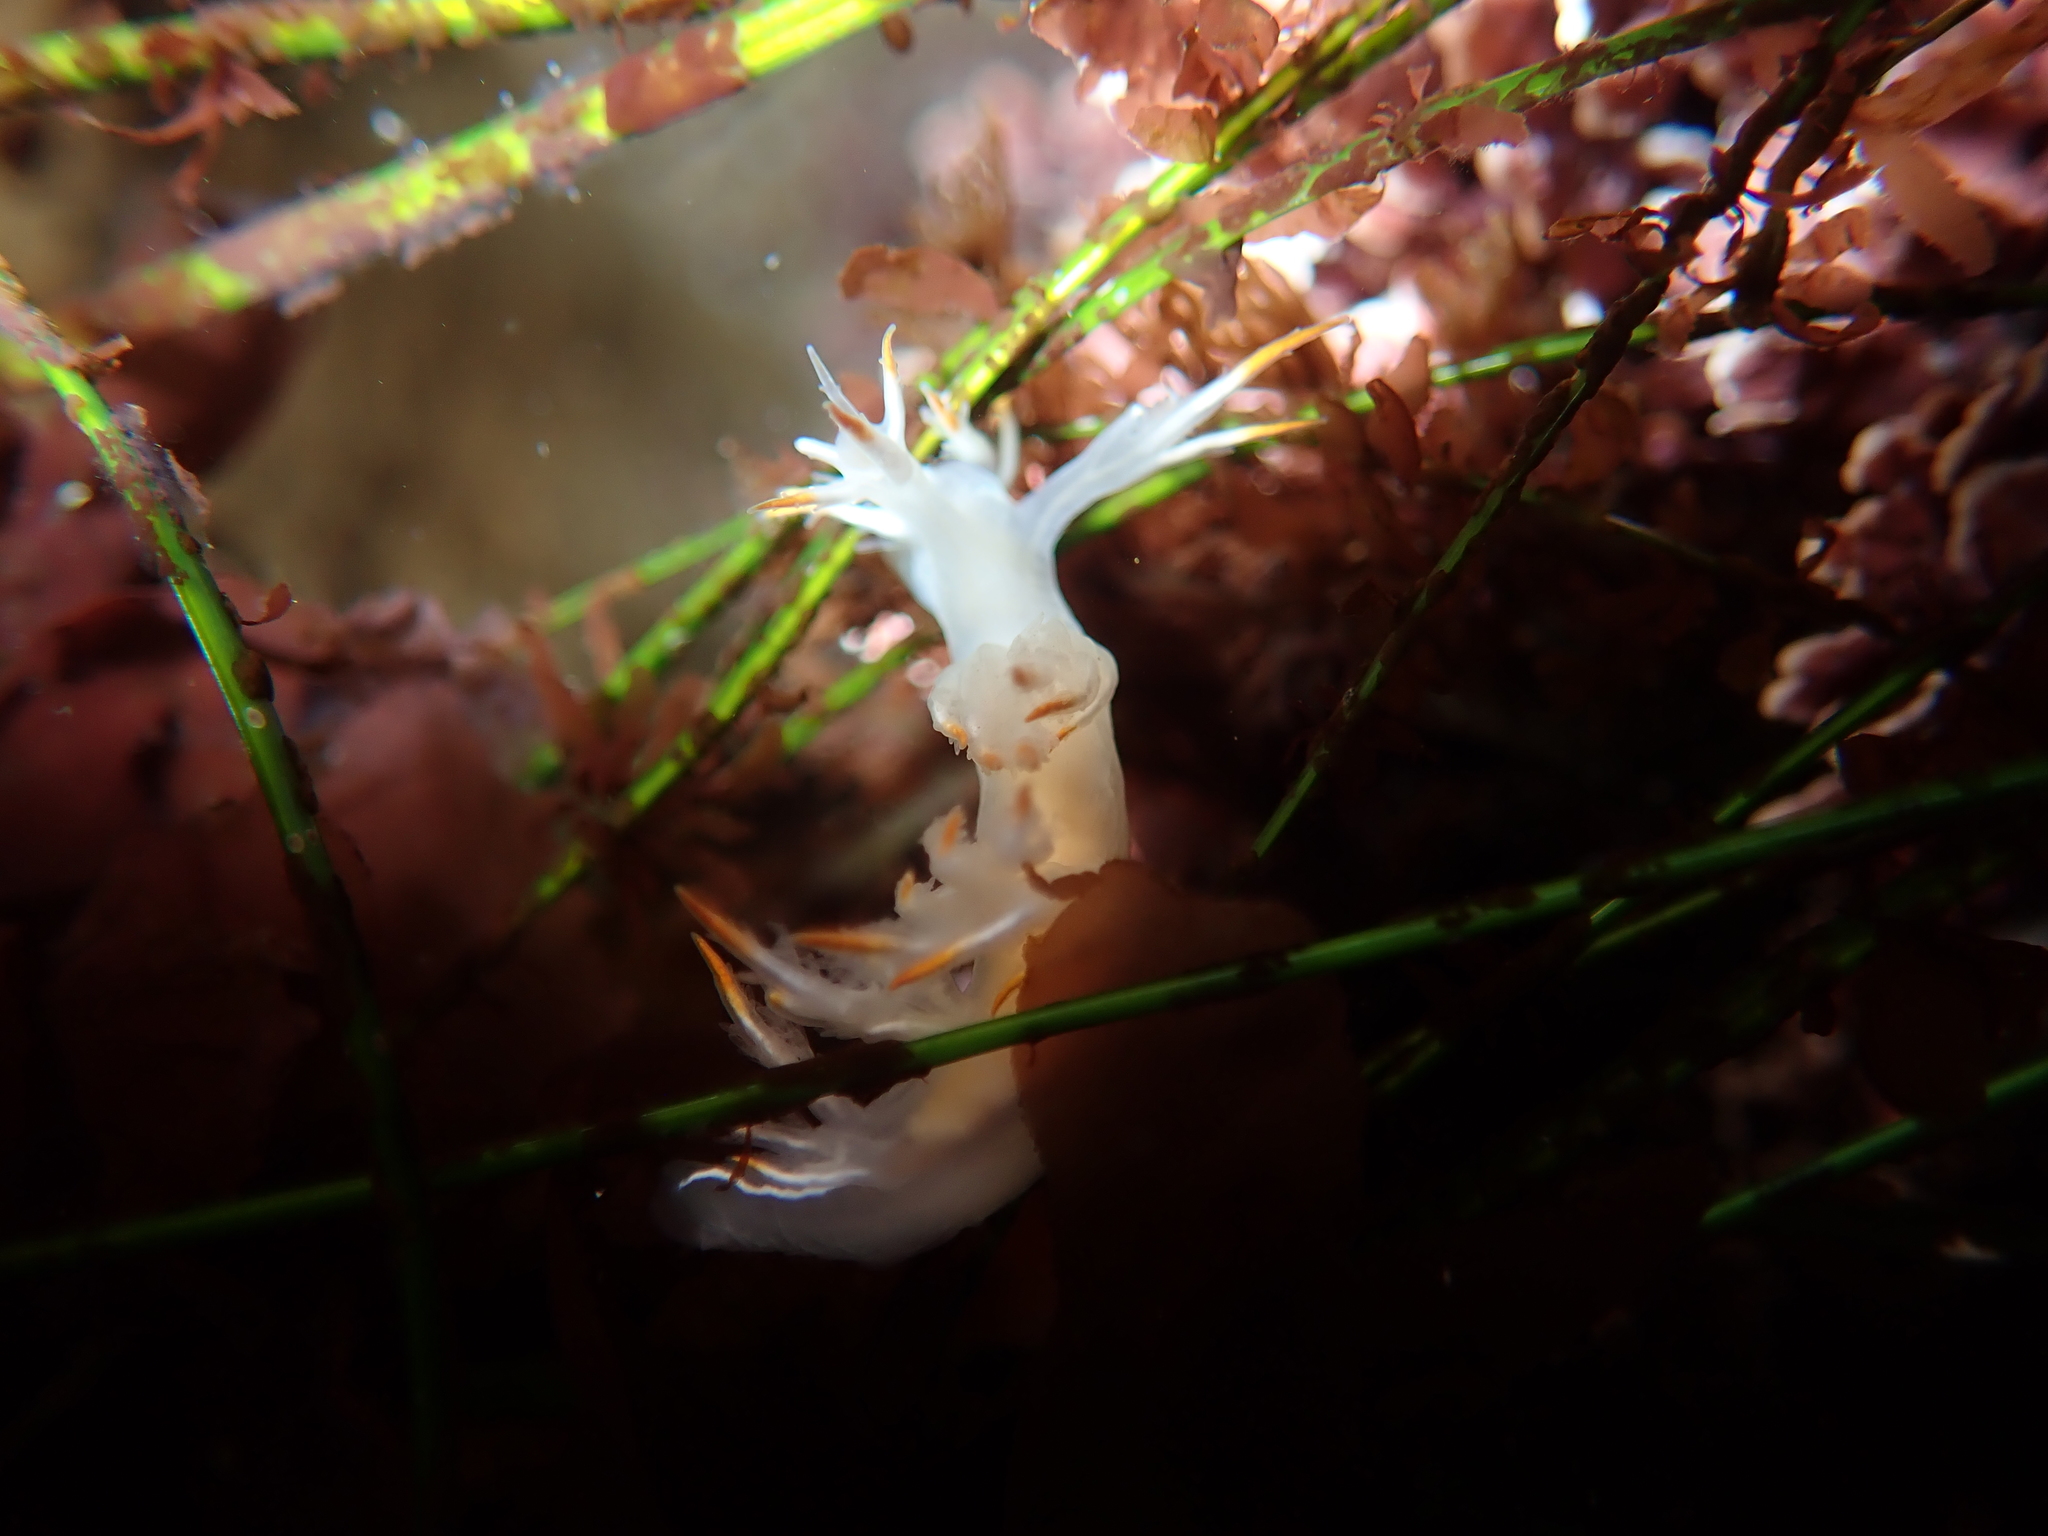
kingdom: Animalia
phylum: Mollusca
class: Gastropoda
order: Nudibranchia
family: Dendronotidae
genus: Dendronotus
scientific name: Dendronotus albus
